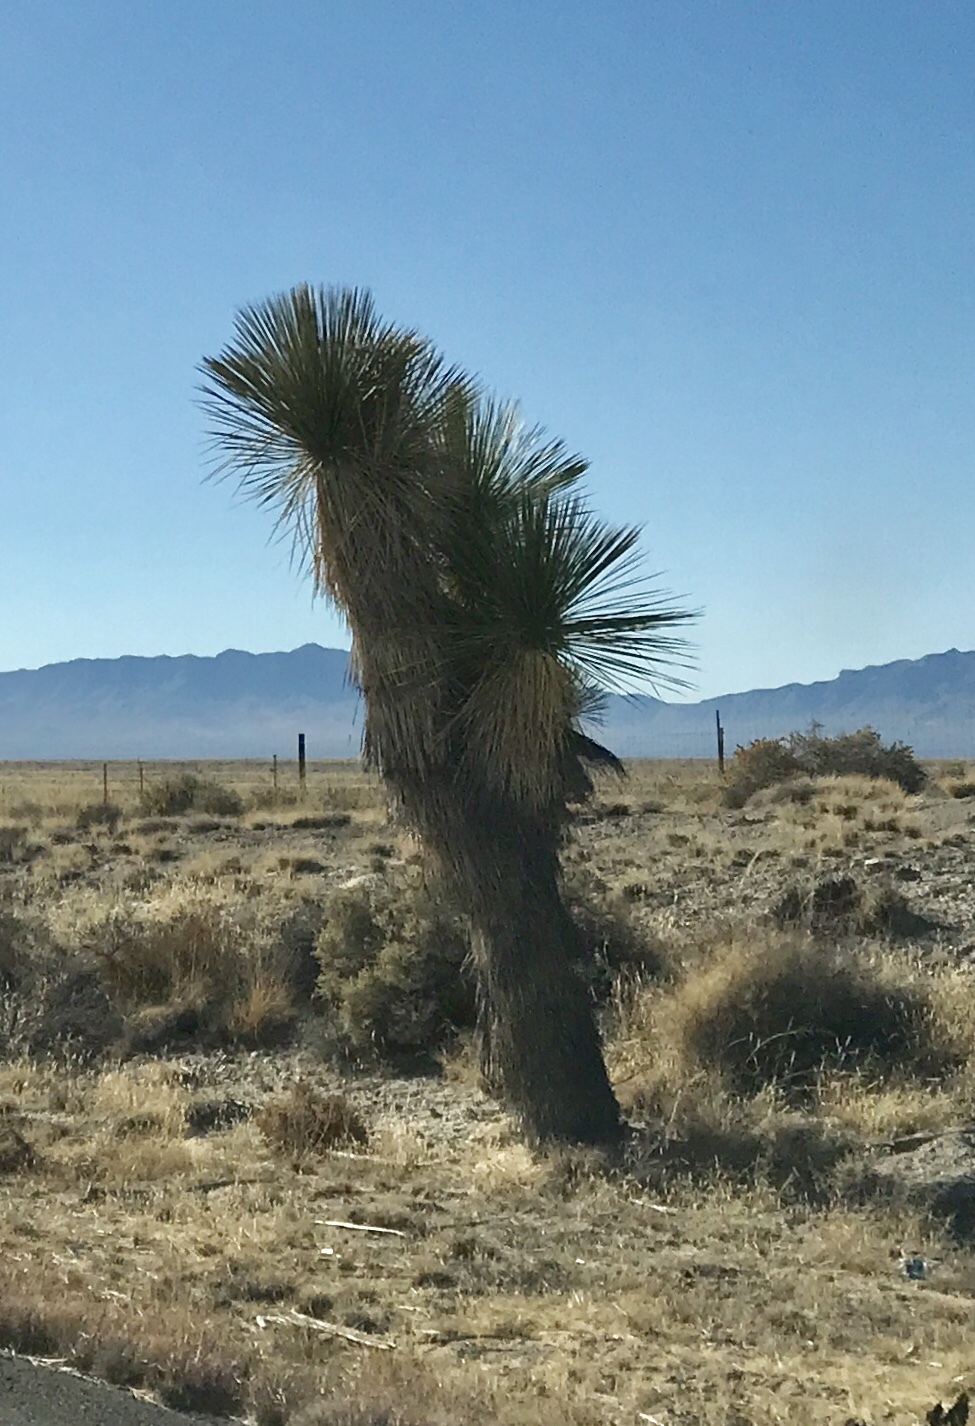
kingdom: Plantae
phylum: Tracheophyta
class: Liliopsida
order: Asparagales
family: Asparagaceae
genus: Yucca
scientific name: Yucca elata
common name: Palmella
